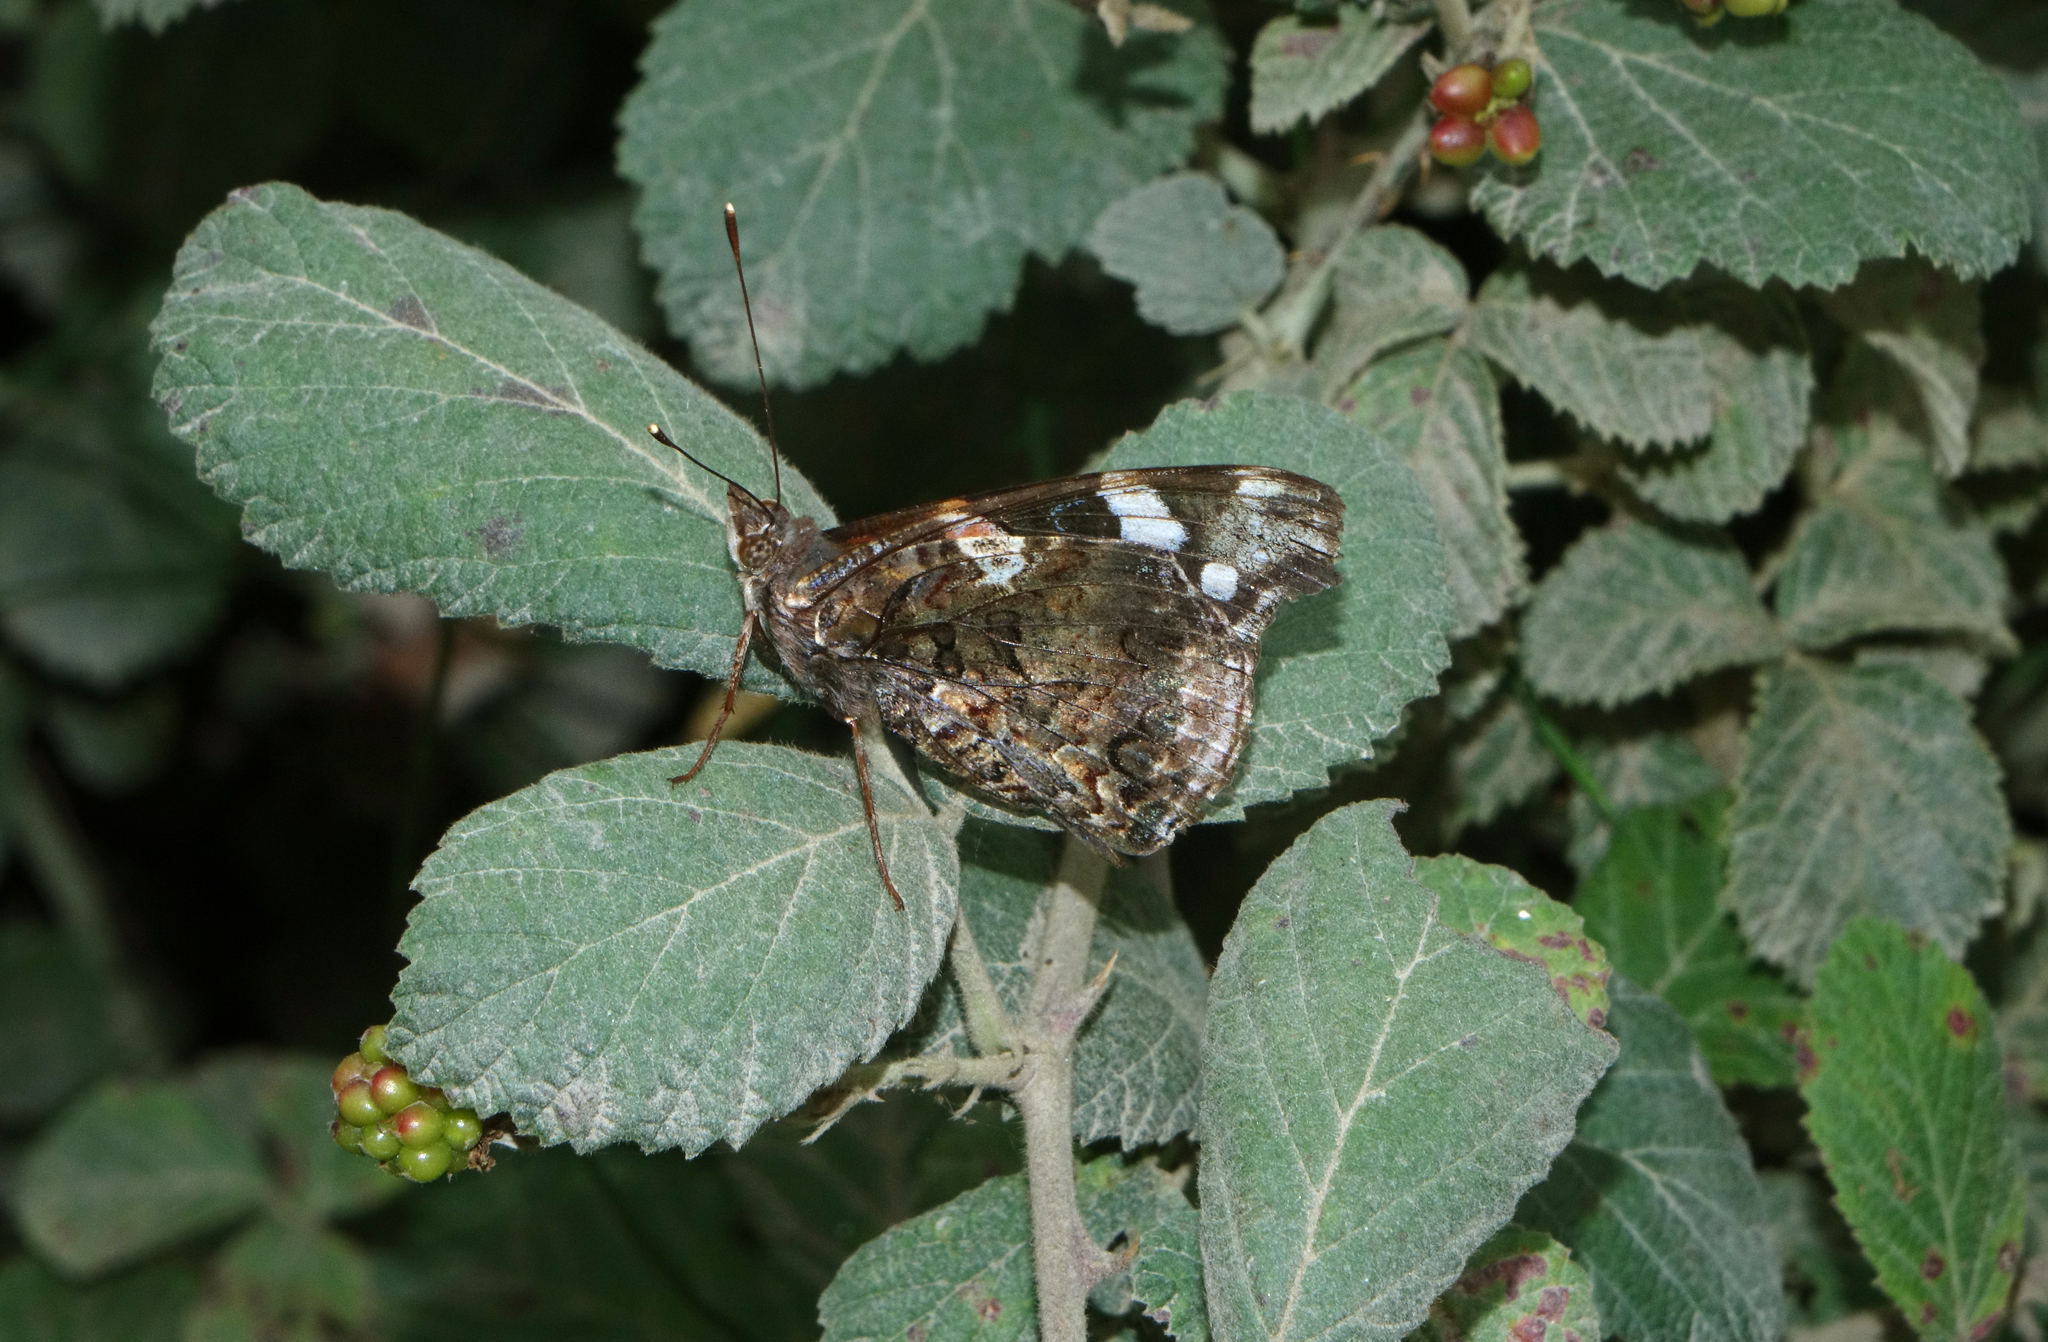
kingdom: Animalia
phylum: Arthropoda
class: Insecta
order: Lepidoptera
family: Nymphalidae
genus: Vanessa
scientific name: Vanessa atalanta
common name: Red admiral
